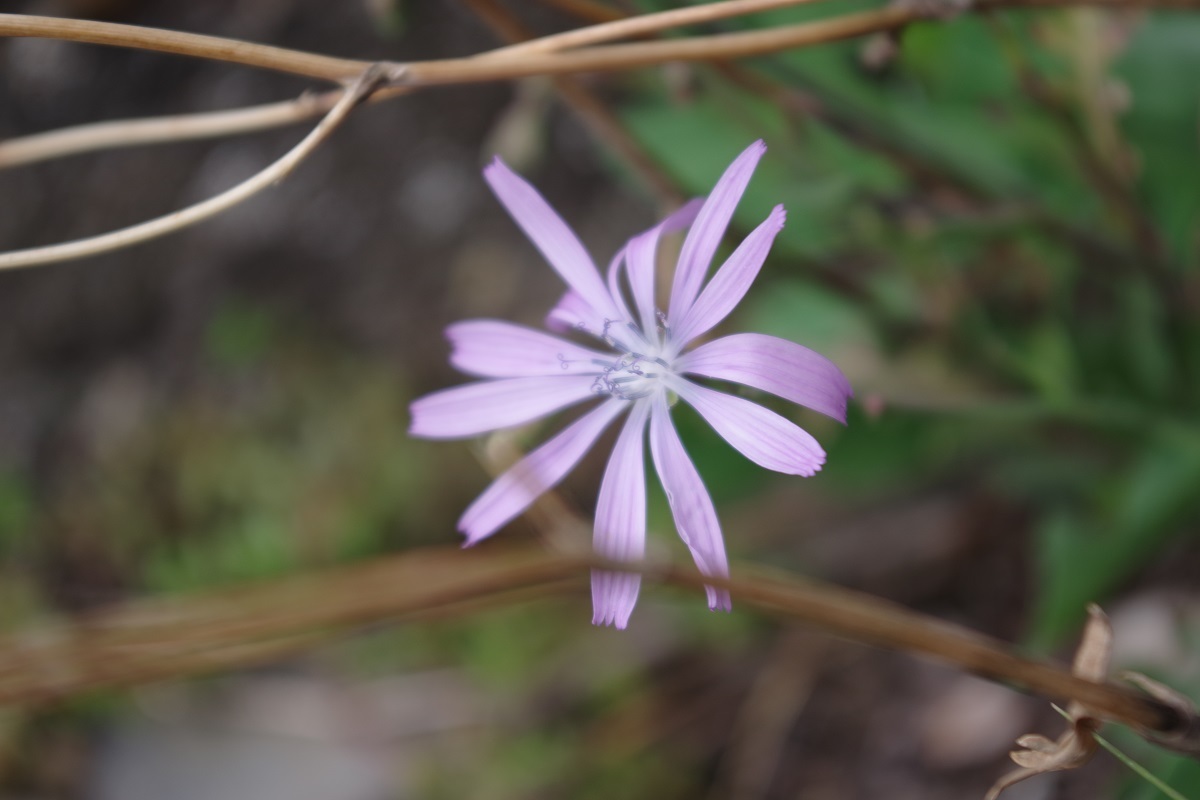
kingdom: Plantae
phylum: Tracheophyta
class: Magnoliopsida
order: Asterales
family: Asteraceae
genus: Lactuca
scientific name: Lactuca perennis
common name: Mountain lettuce
